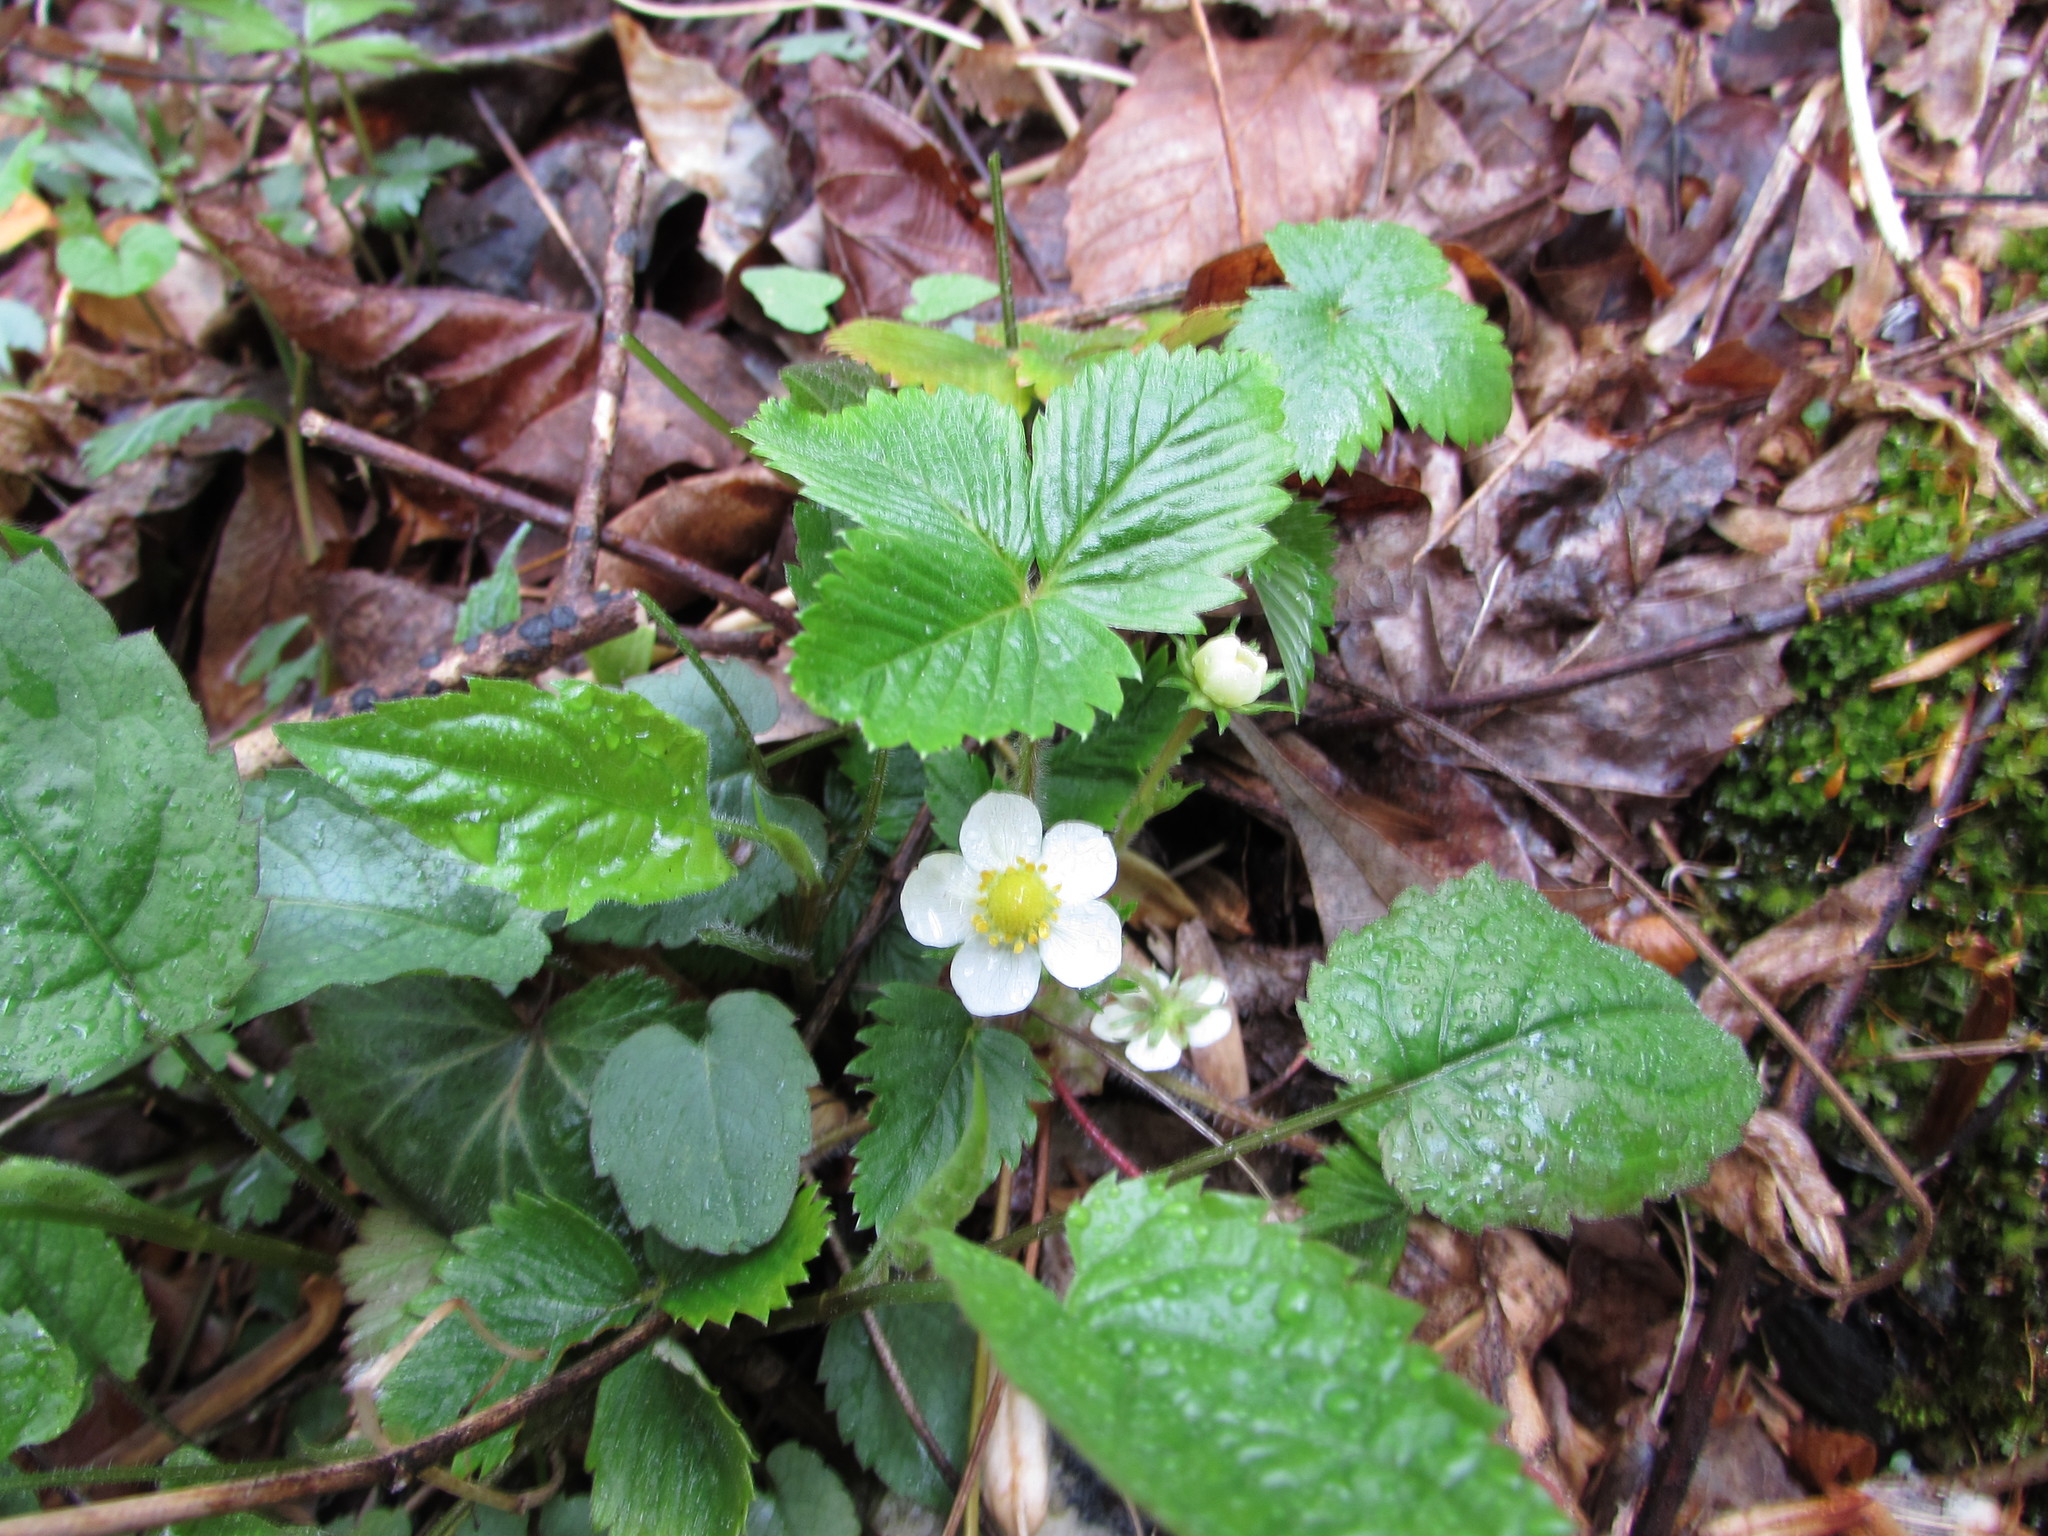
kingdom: Plantae
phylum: Tracheophyta
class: Magnoliopsida
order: Rosales
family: Rosaceae
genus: Fragaria
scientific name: Fragaria vesca
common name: Wild strawberry
